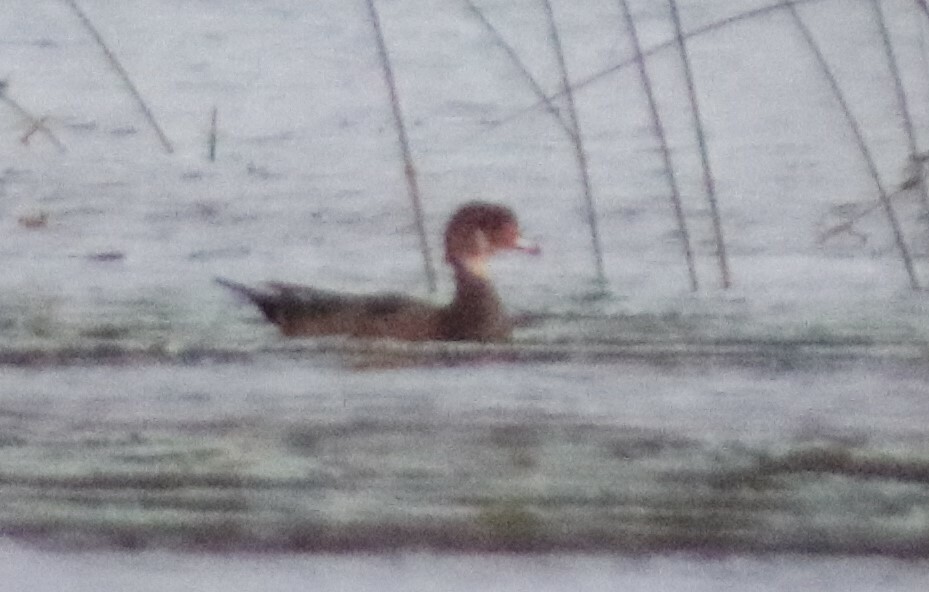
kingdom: Animalia
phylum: Chordata
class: Aves
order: Anseriformes
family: Anatidae
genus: Aix
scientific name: Aix sponsa
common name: Wood duck
